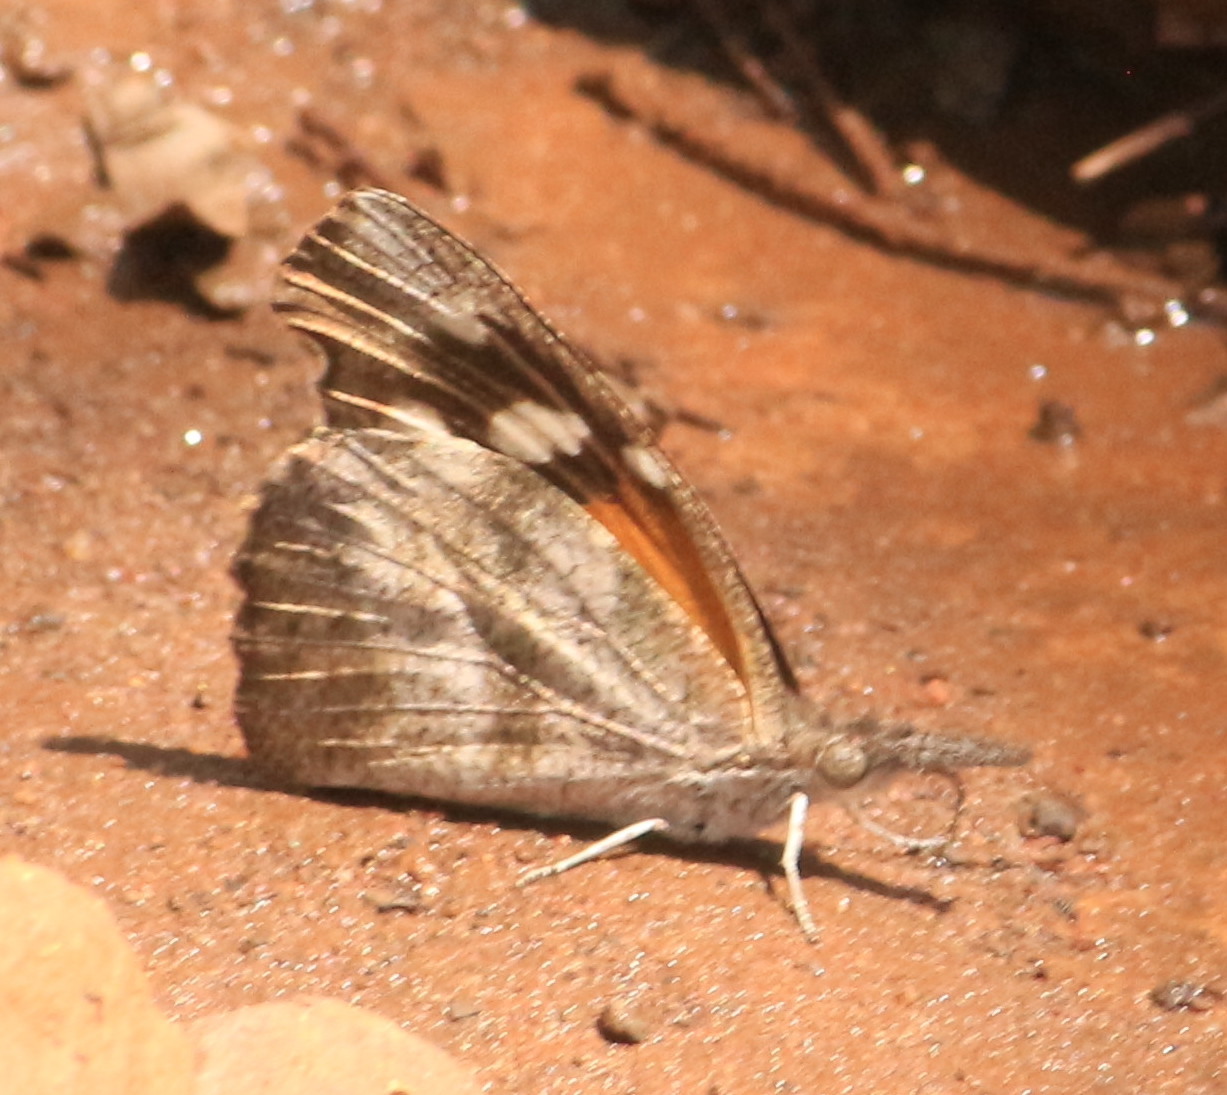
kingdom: Animalia
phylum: Arthropoda
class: Insecta
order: Lepidoptera
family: Nymphalidae
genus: Libytheana
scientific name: Libytheana carinenta
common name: American snout
